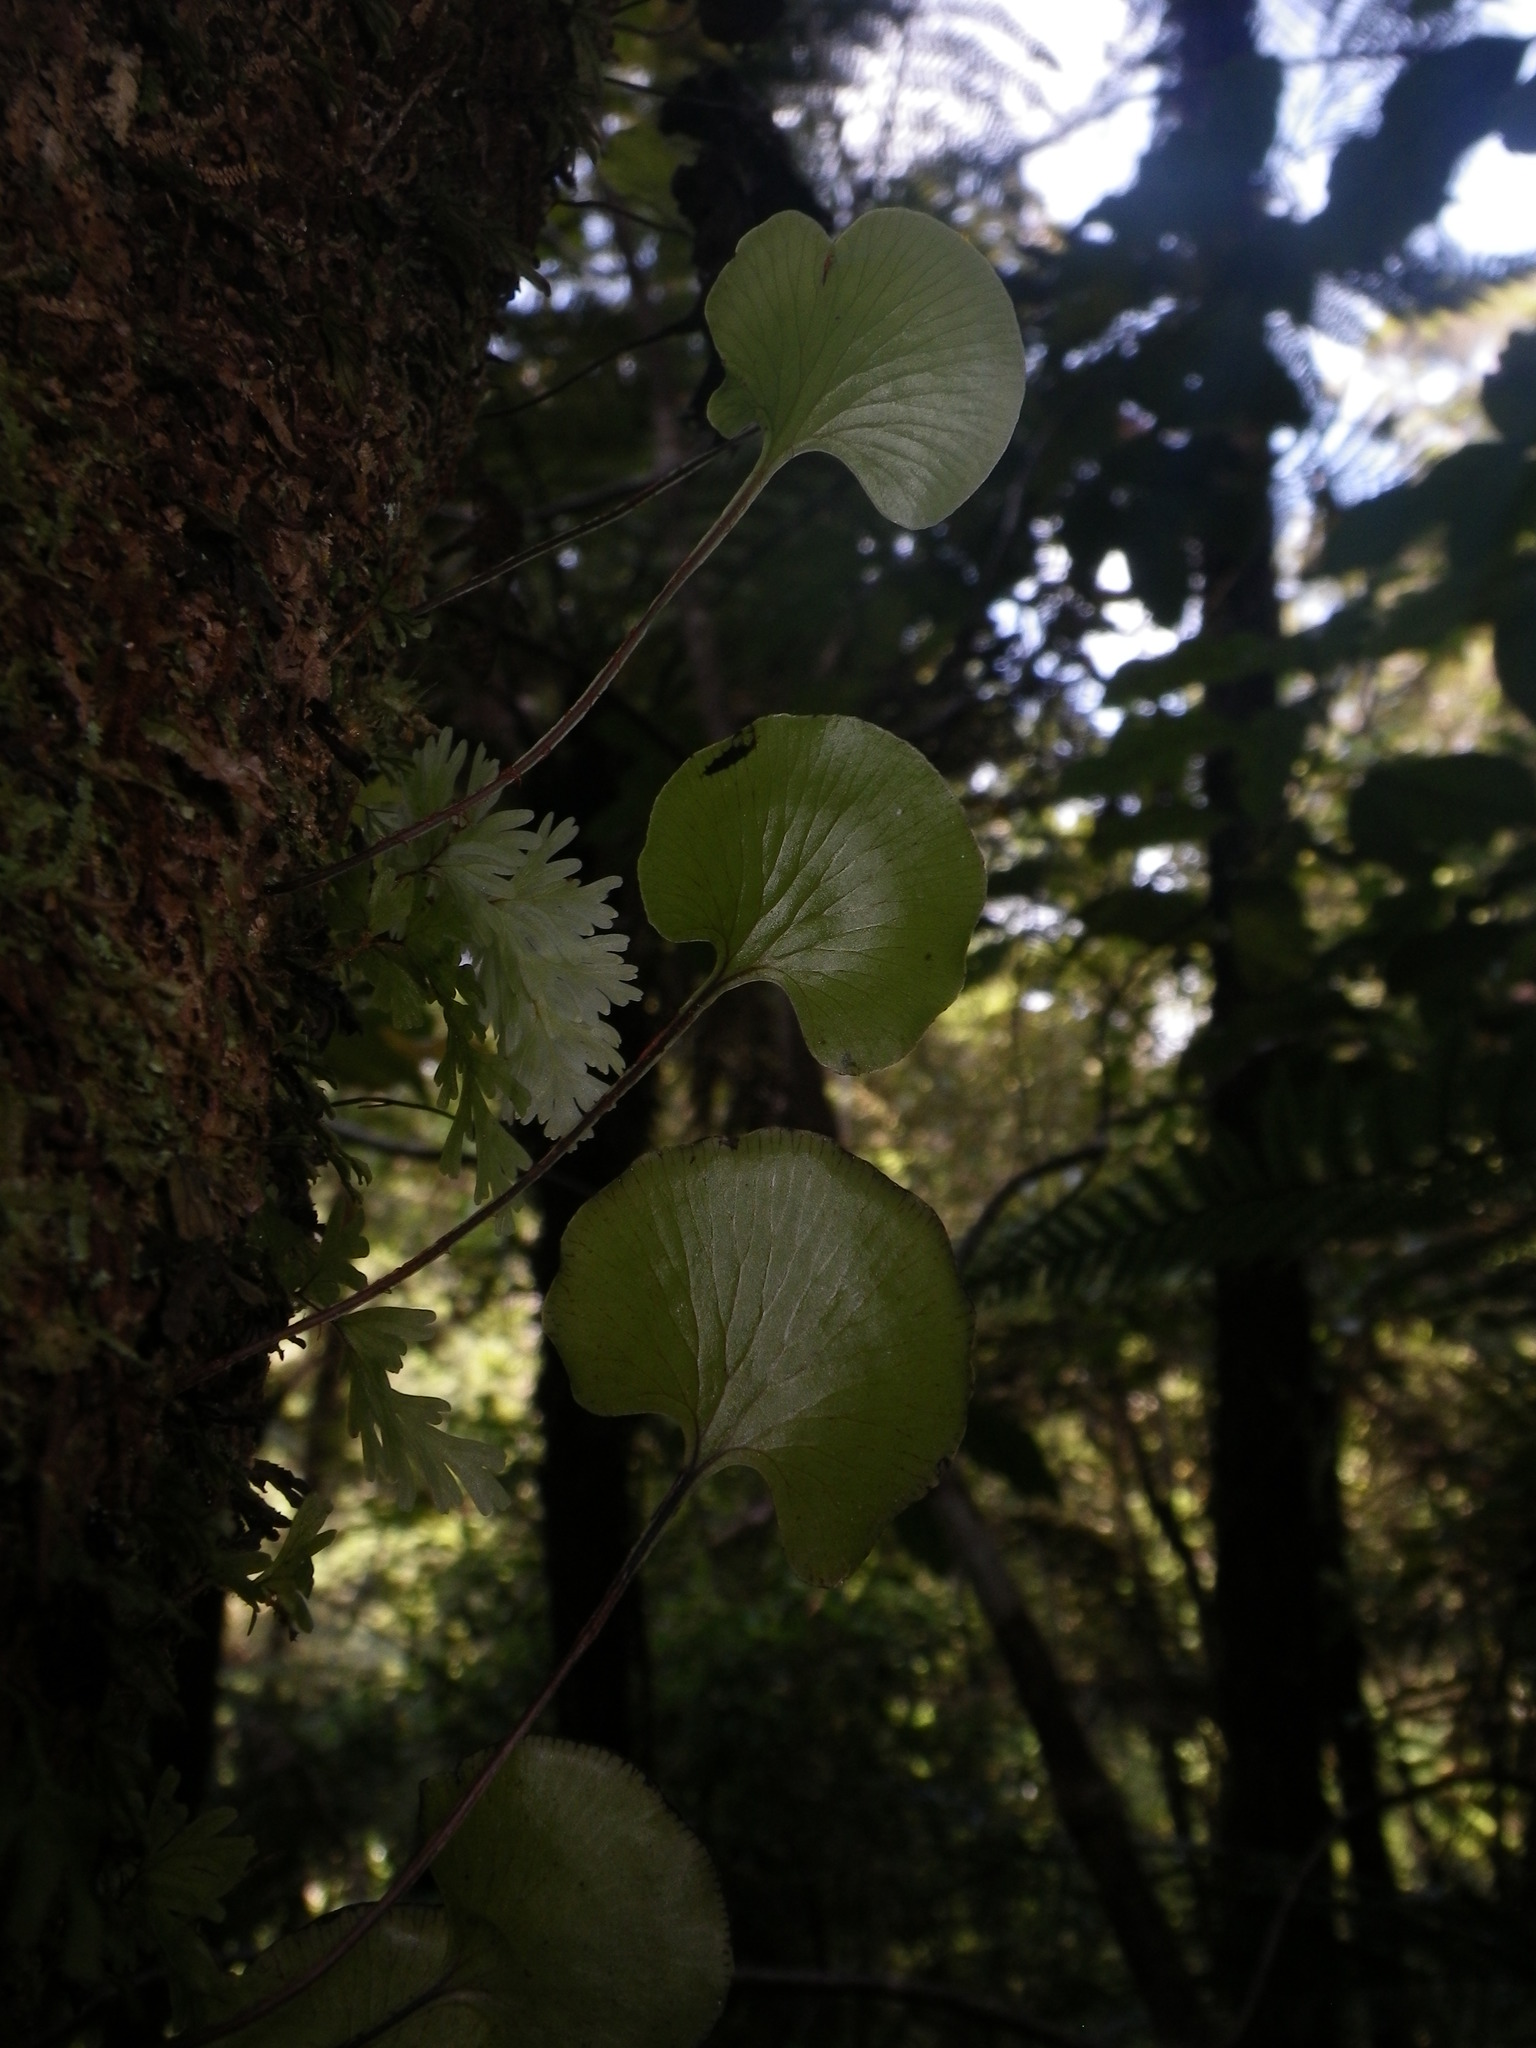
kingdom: Plantae
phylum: Tracheophyta
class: Polypodiopsida
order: Hymenophyllales
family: Hymenophyllaceae
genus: Hymenophyllum
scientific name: Hymenophyllum nephrophyllum
